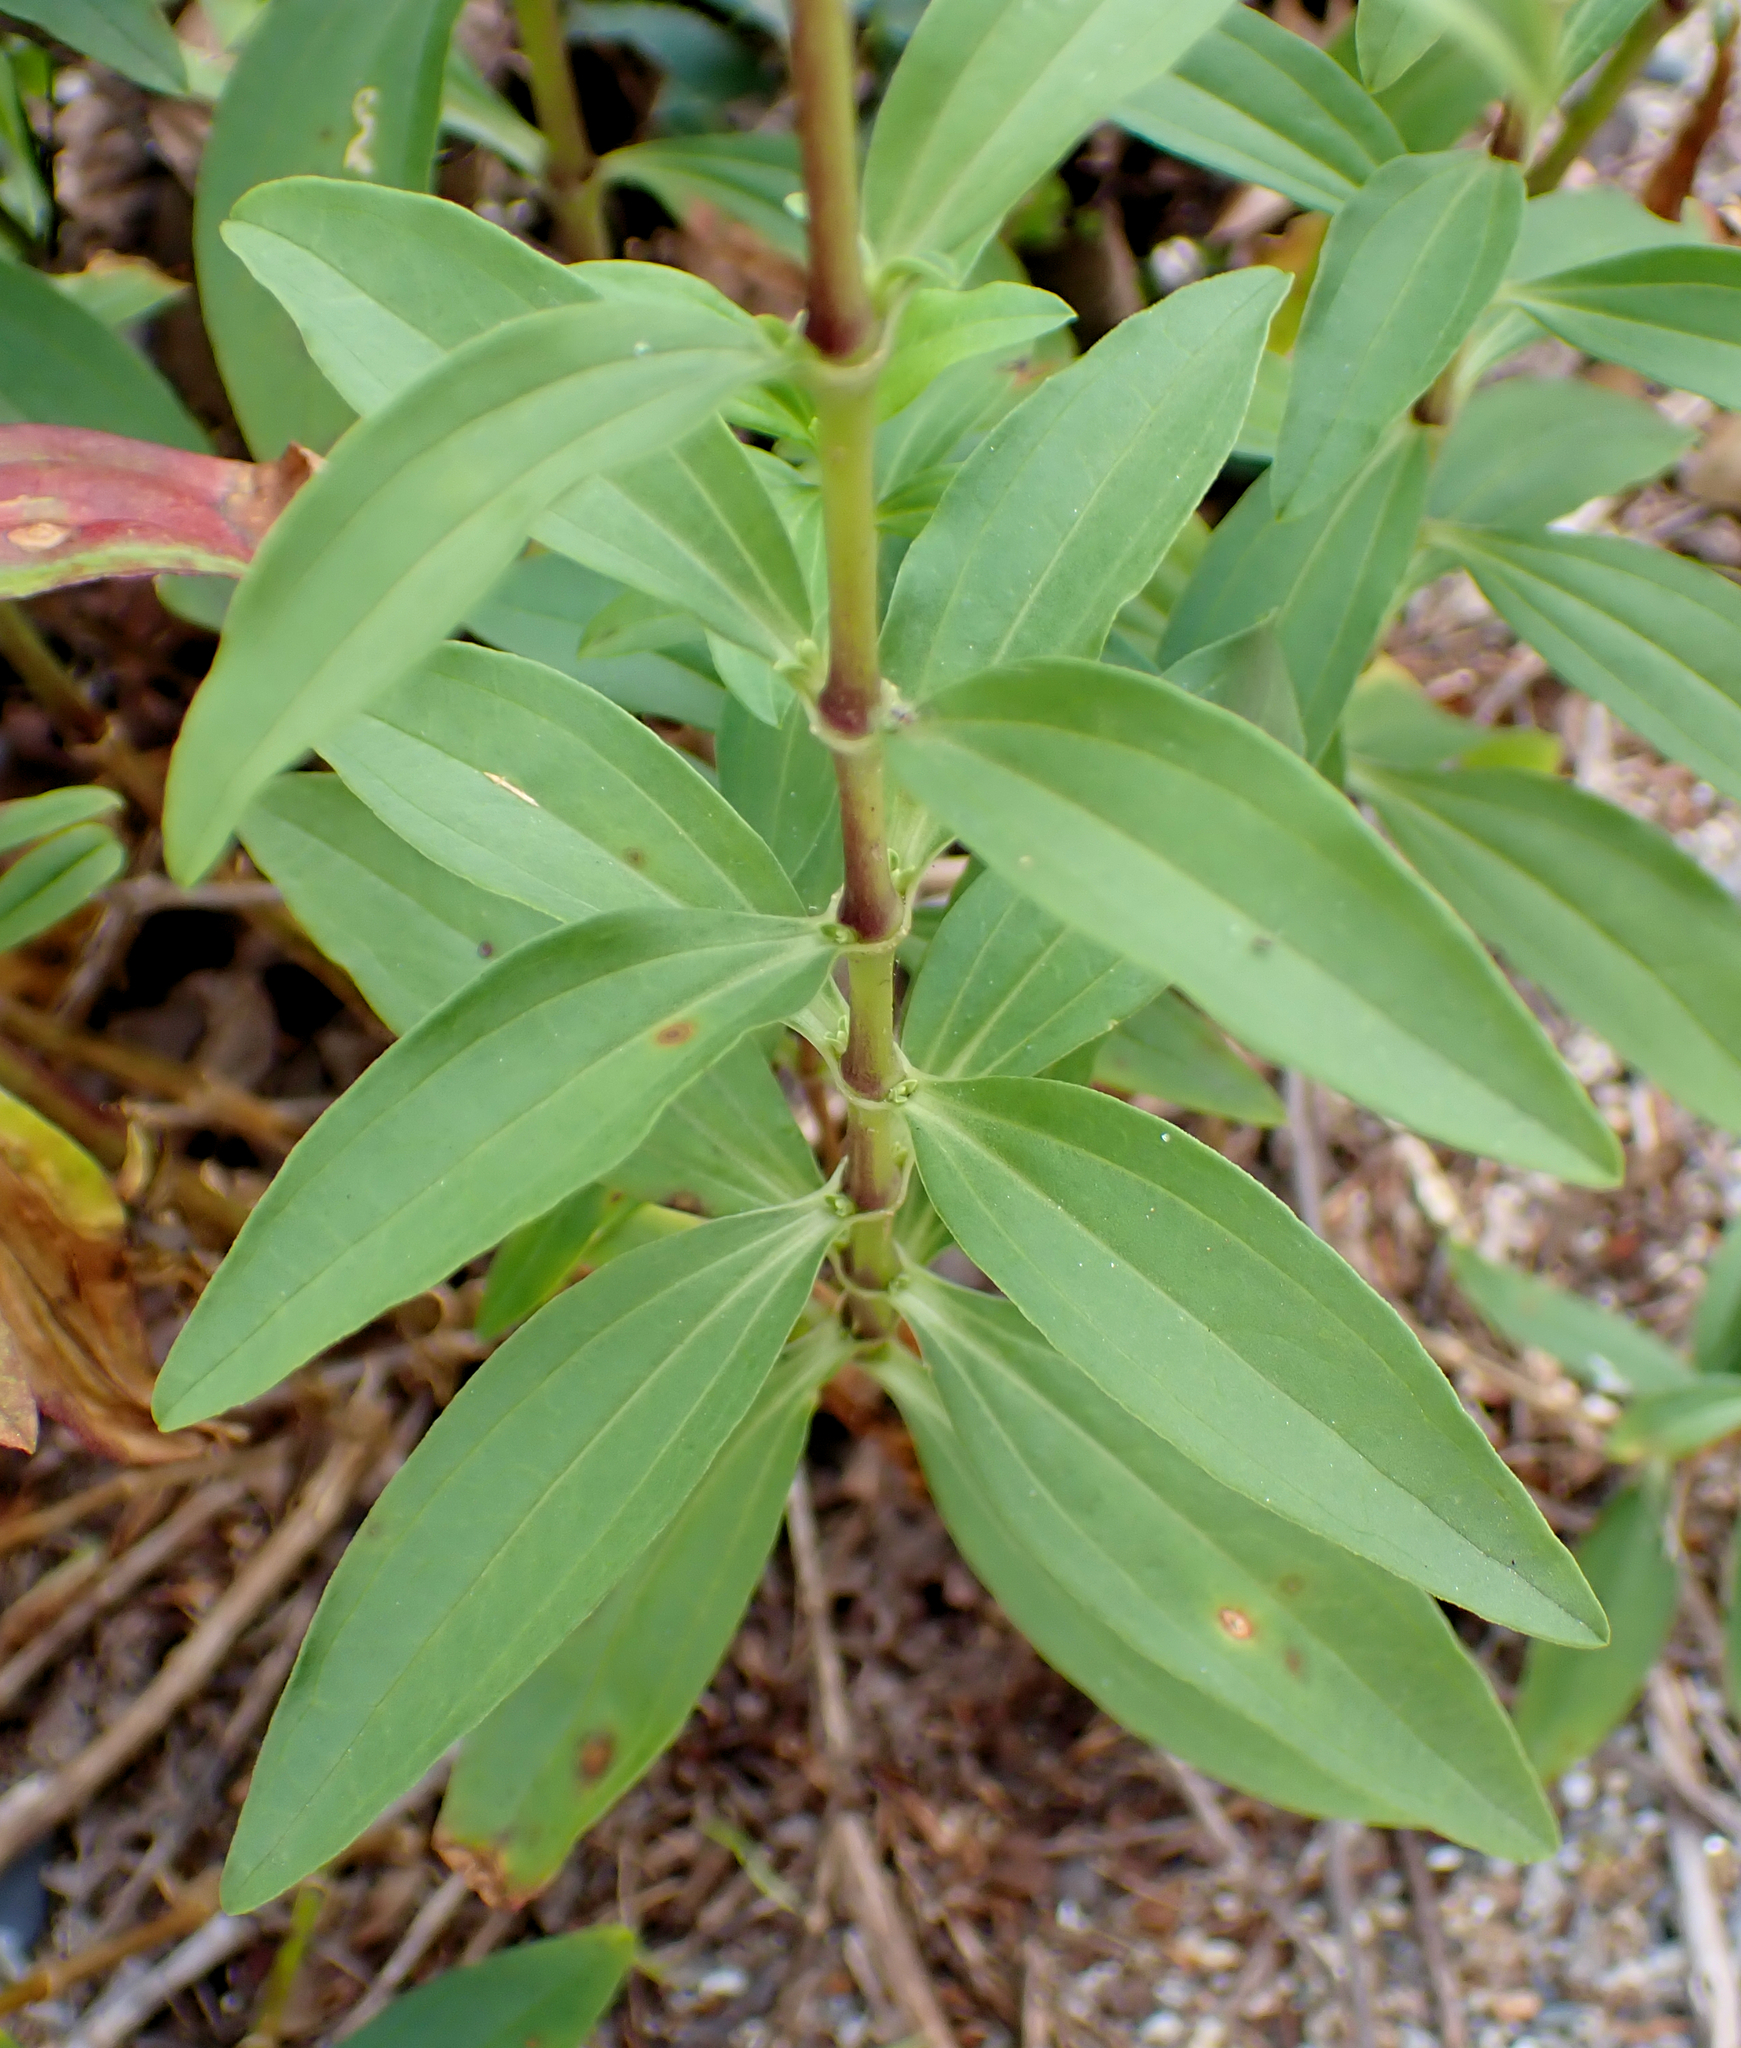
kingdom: Plantae
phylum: Tracheophyta
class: Magnoliopsida
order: Caryophyllales
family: Caryophyllaceae
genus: Saponaria
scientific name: Saponaria officinalis
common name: Soapwort
